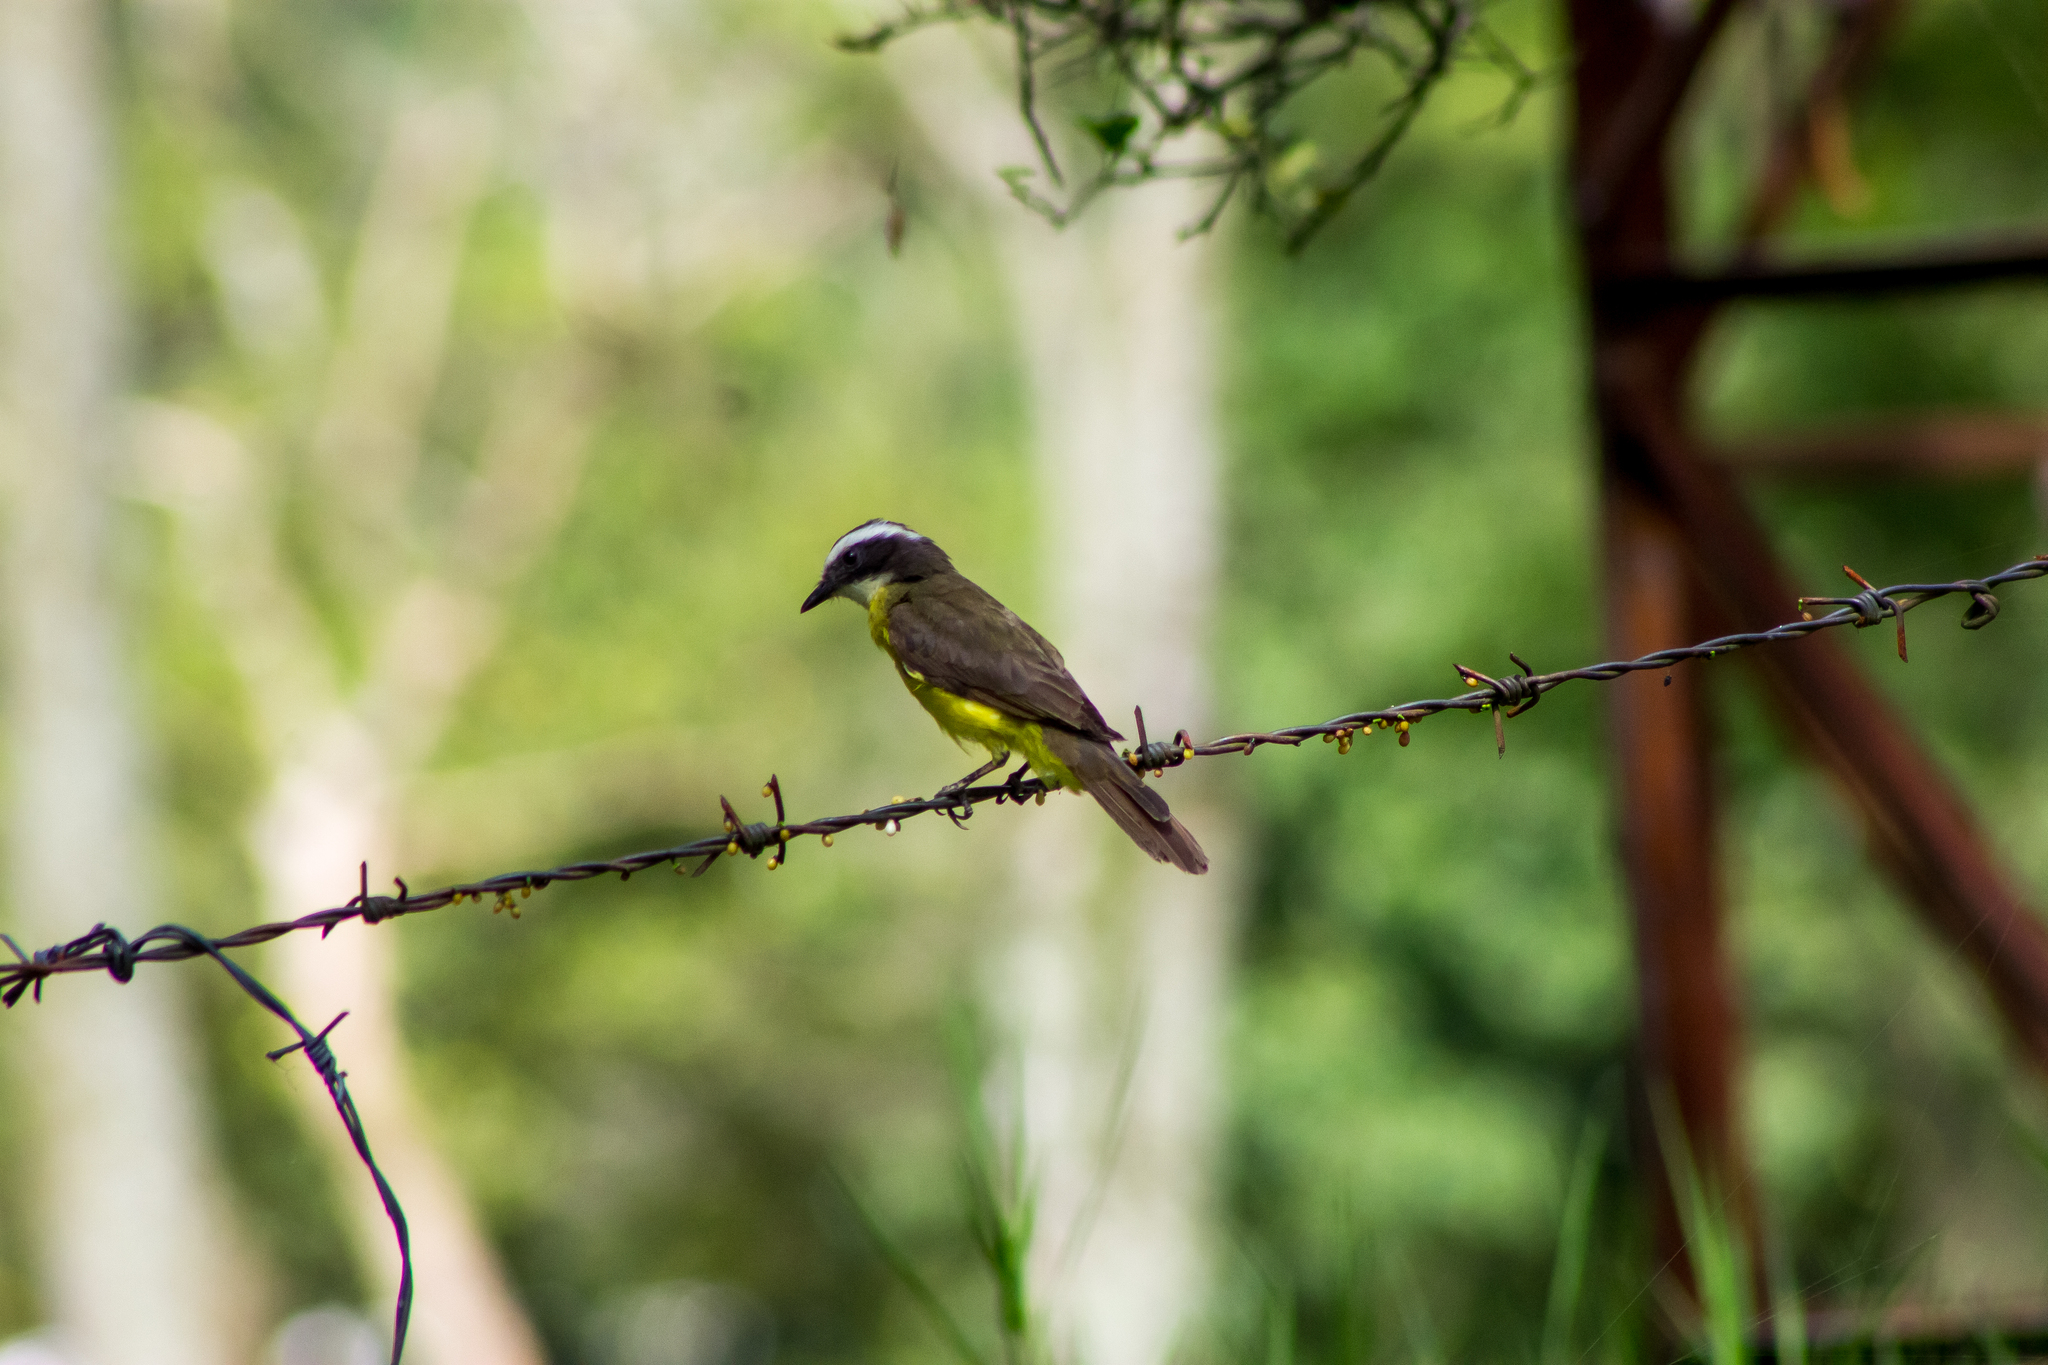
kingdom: Animalia
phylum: Chordata
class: Aves
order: Passeriformes
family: Tyrannidae
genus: Myiozetetes
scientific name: Myiozetetes cayanensis
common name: Rusty-margined flycatcher
